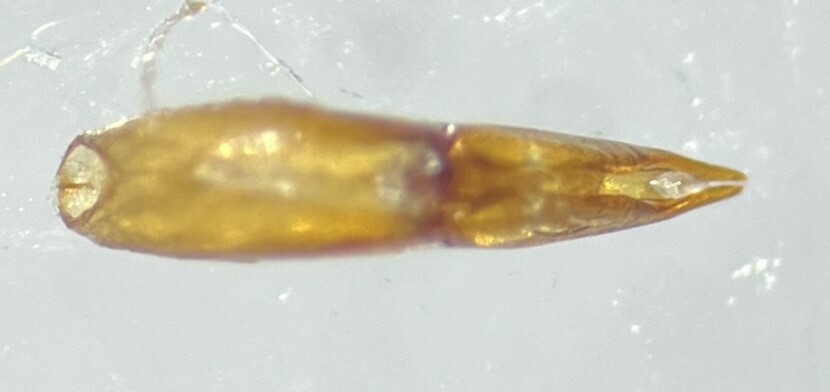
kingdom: Animalia
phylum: Arthropoda
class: Insecta
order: Coleoptera
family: Hydrochidae
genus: Hydrochus
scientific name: Hydrochus rugosus
